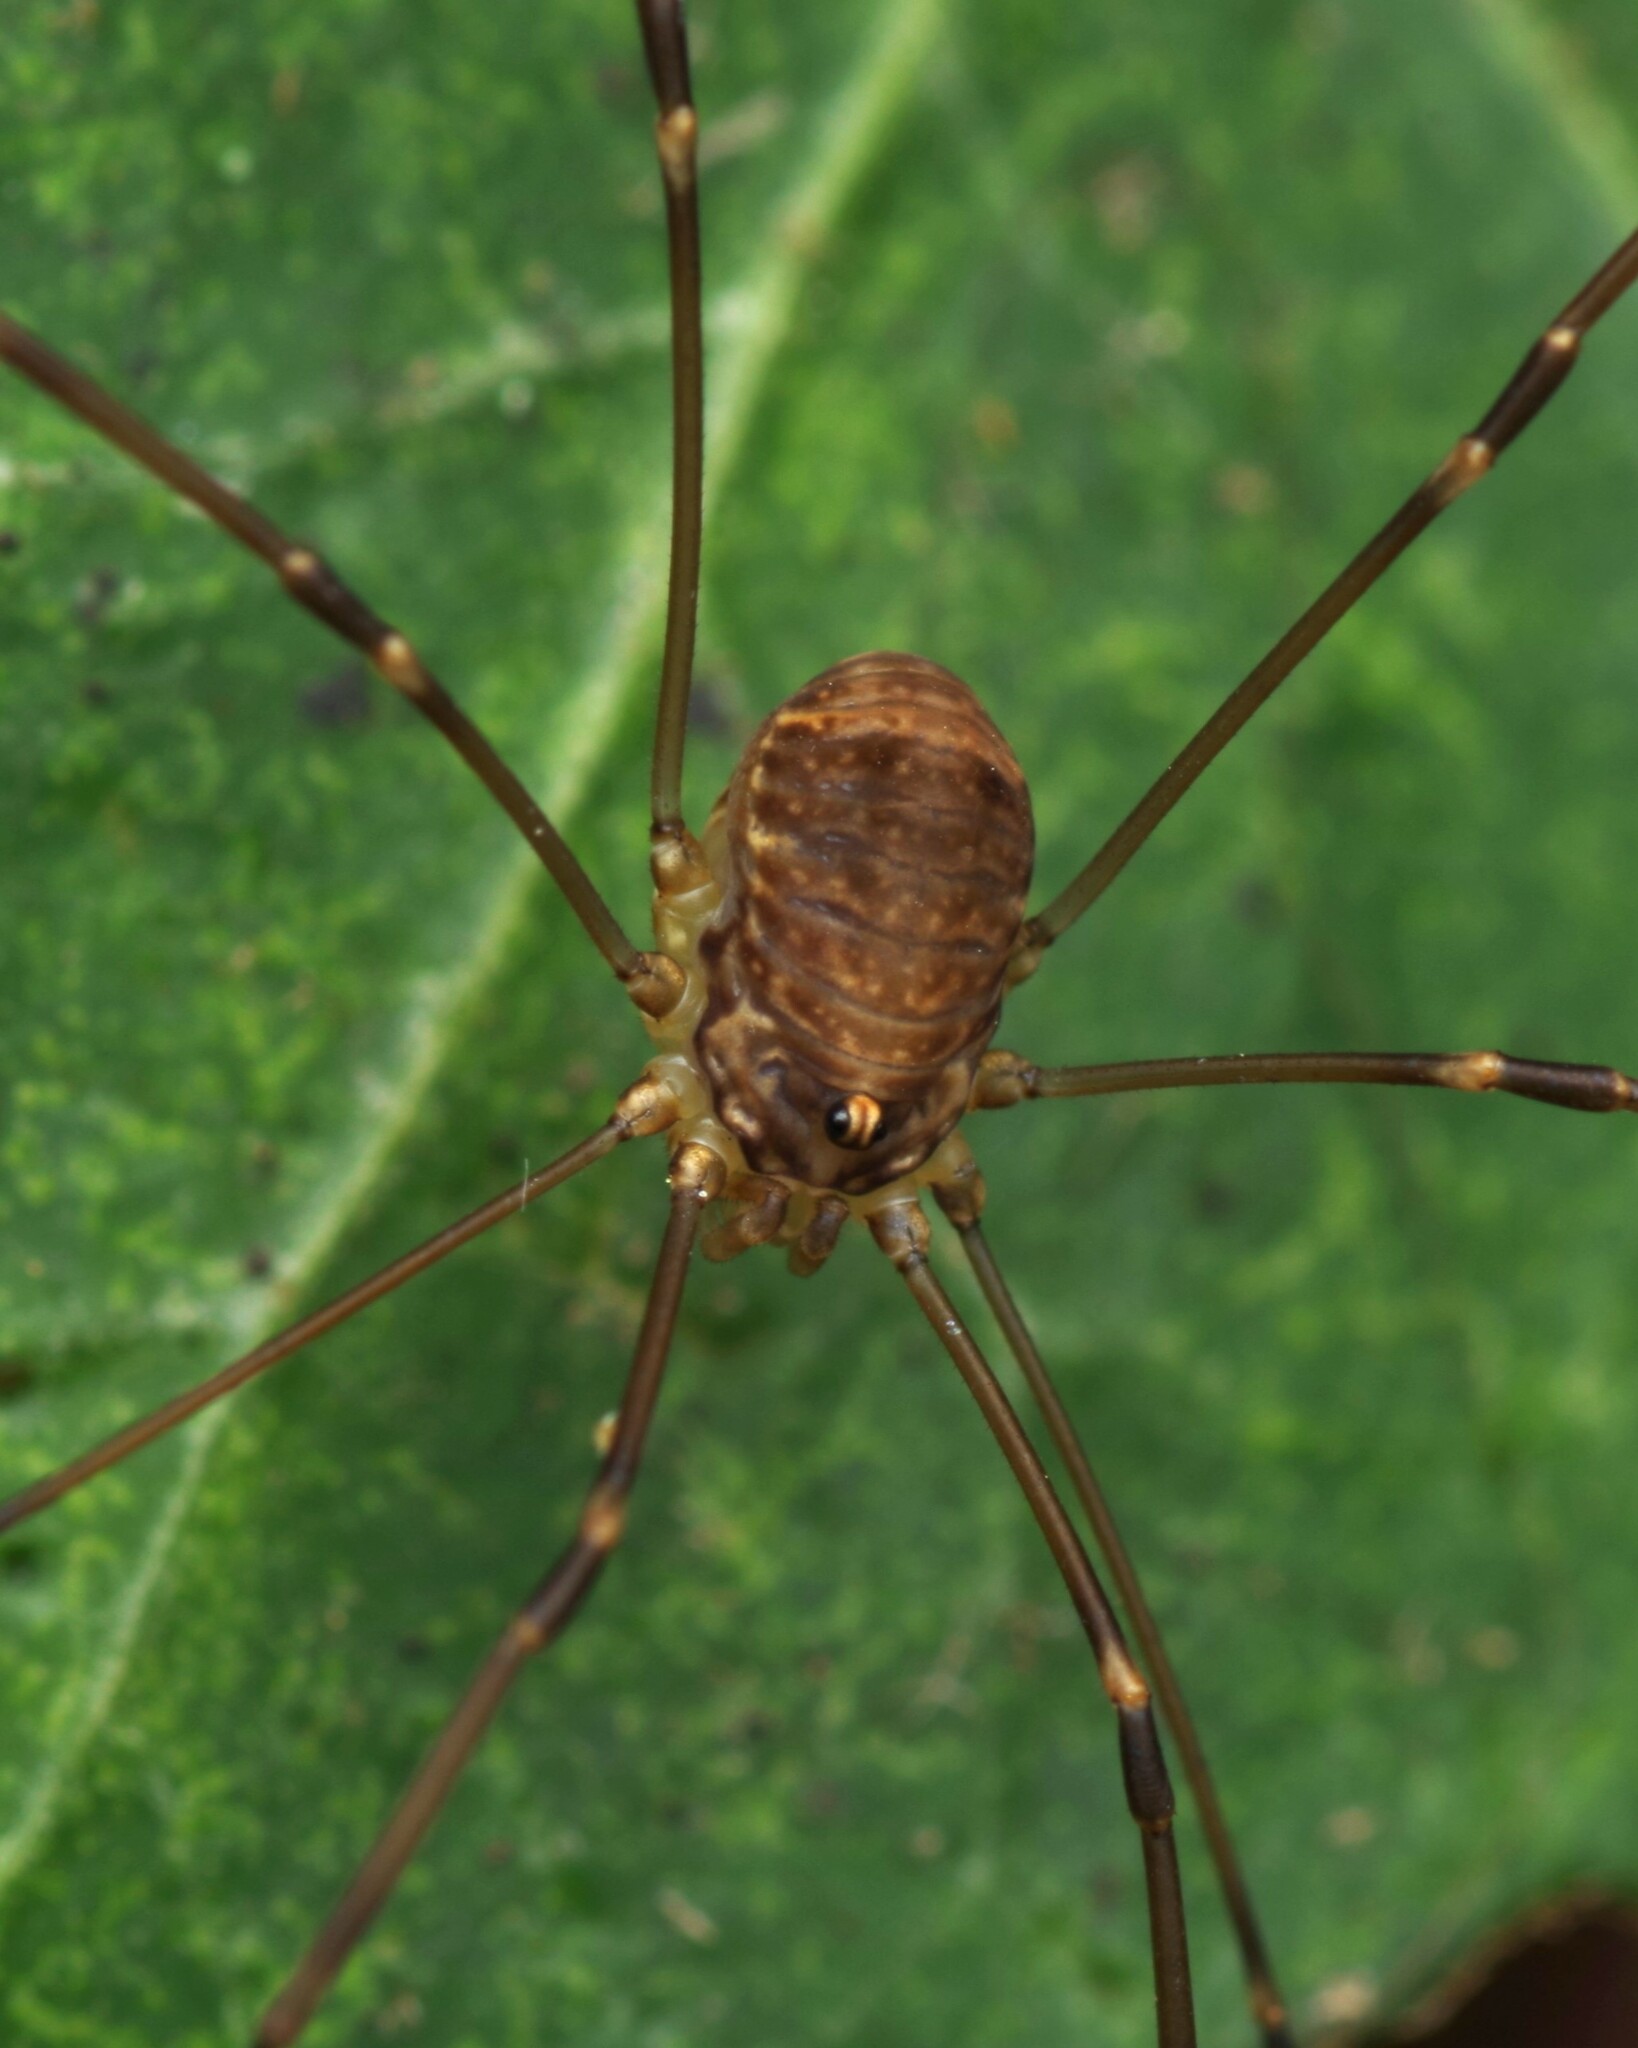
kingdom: Animalia
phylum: Arthropoda
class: Arachnida
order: Opiliones
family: Sclerosomatidae
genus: Leiobunum
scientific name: Leiobunum blackwalli
